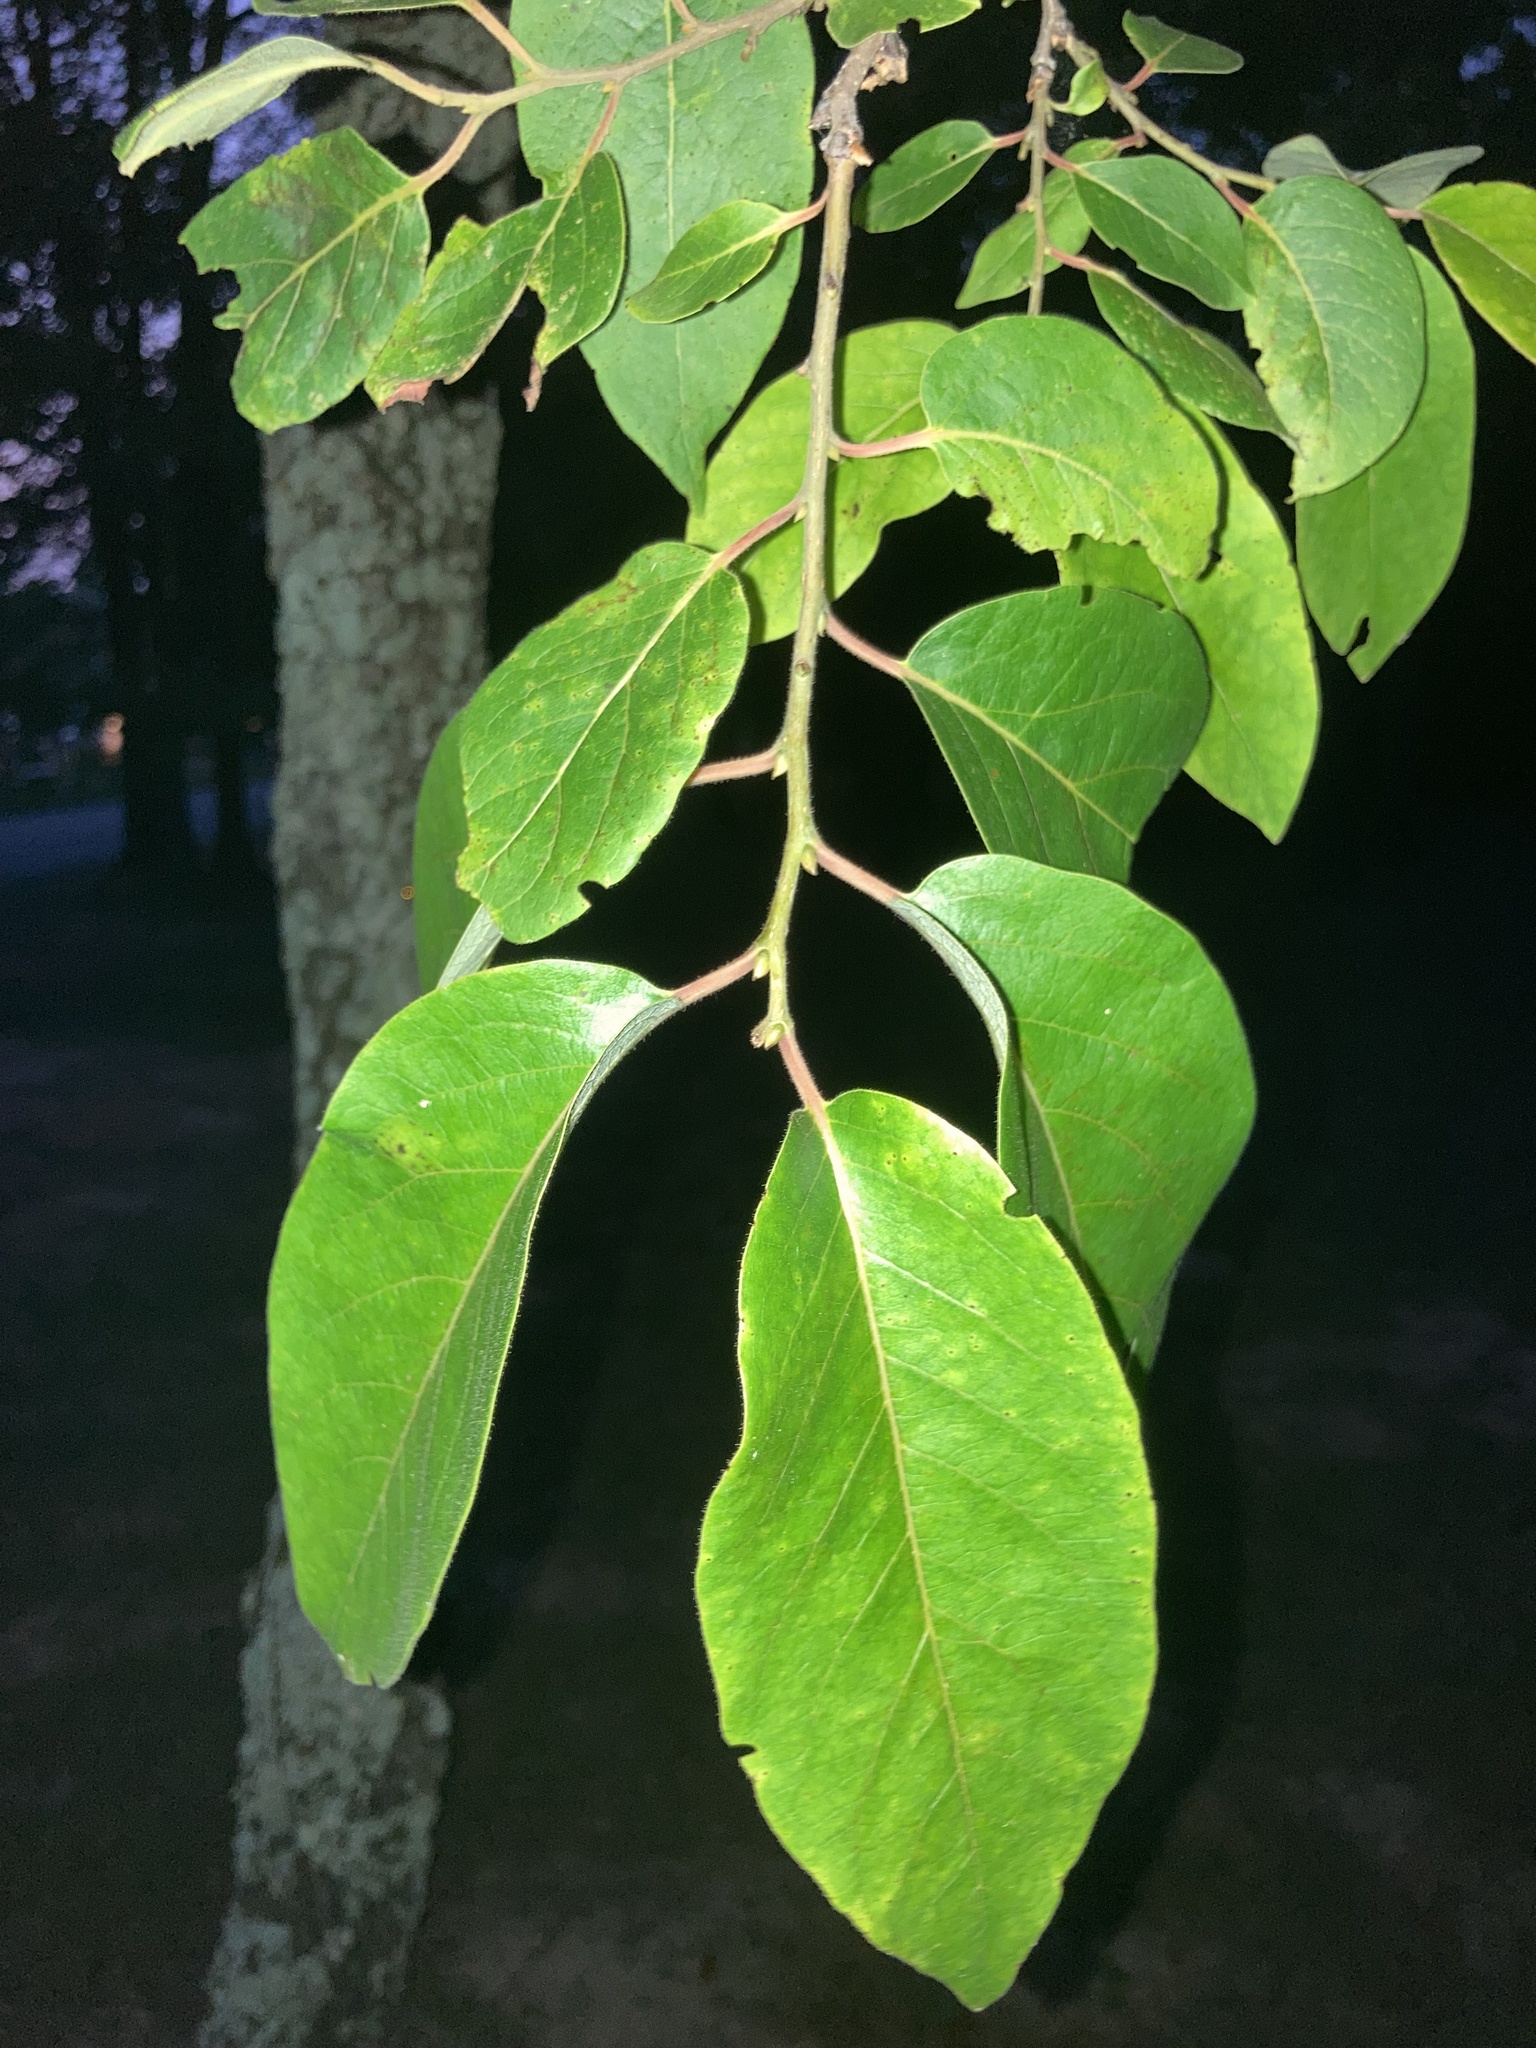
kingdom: Plantae
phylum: Tracheophyta
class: Magnoliopsida
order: Ericales
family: Ebenaceae
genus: Diospyros
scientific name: Diospyros virginiana
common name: Persimmon
